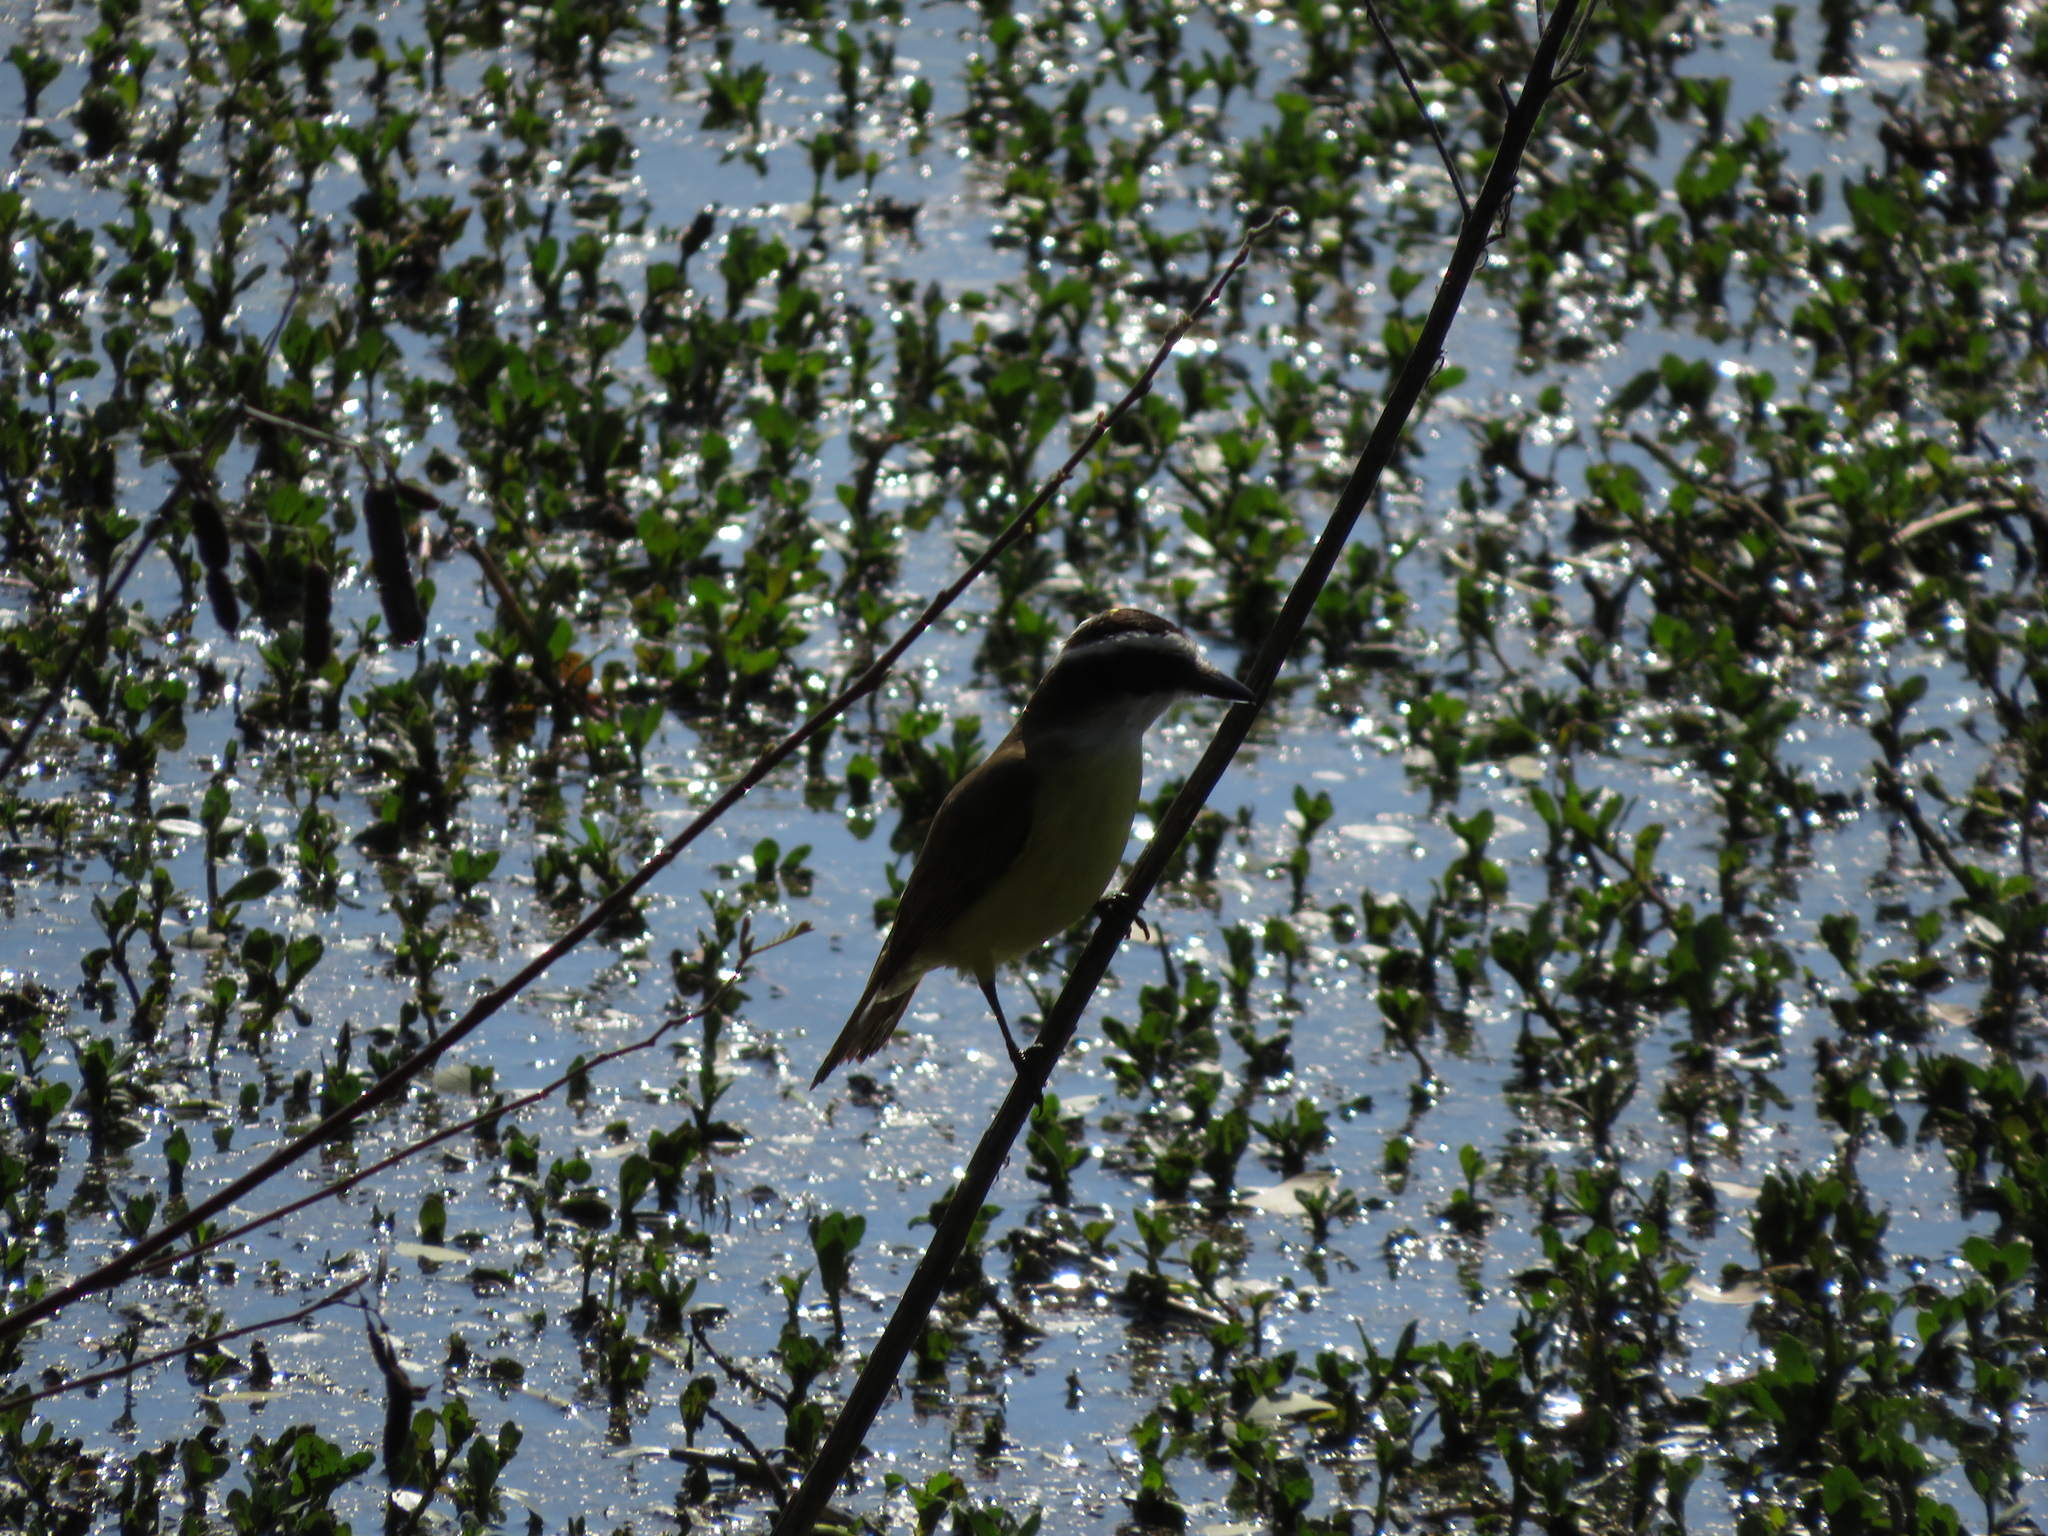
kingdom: Animalia
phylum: Chordata
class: Aves
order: Passeriformes
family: Tyrannidae
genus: Pitangus
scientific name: Pitangus sulphuratus
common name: Great kiskadee
